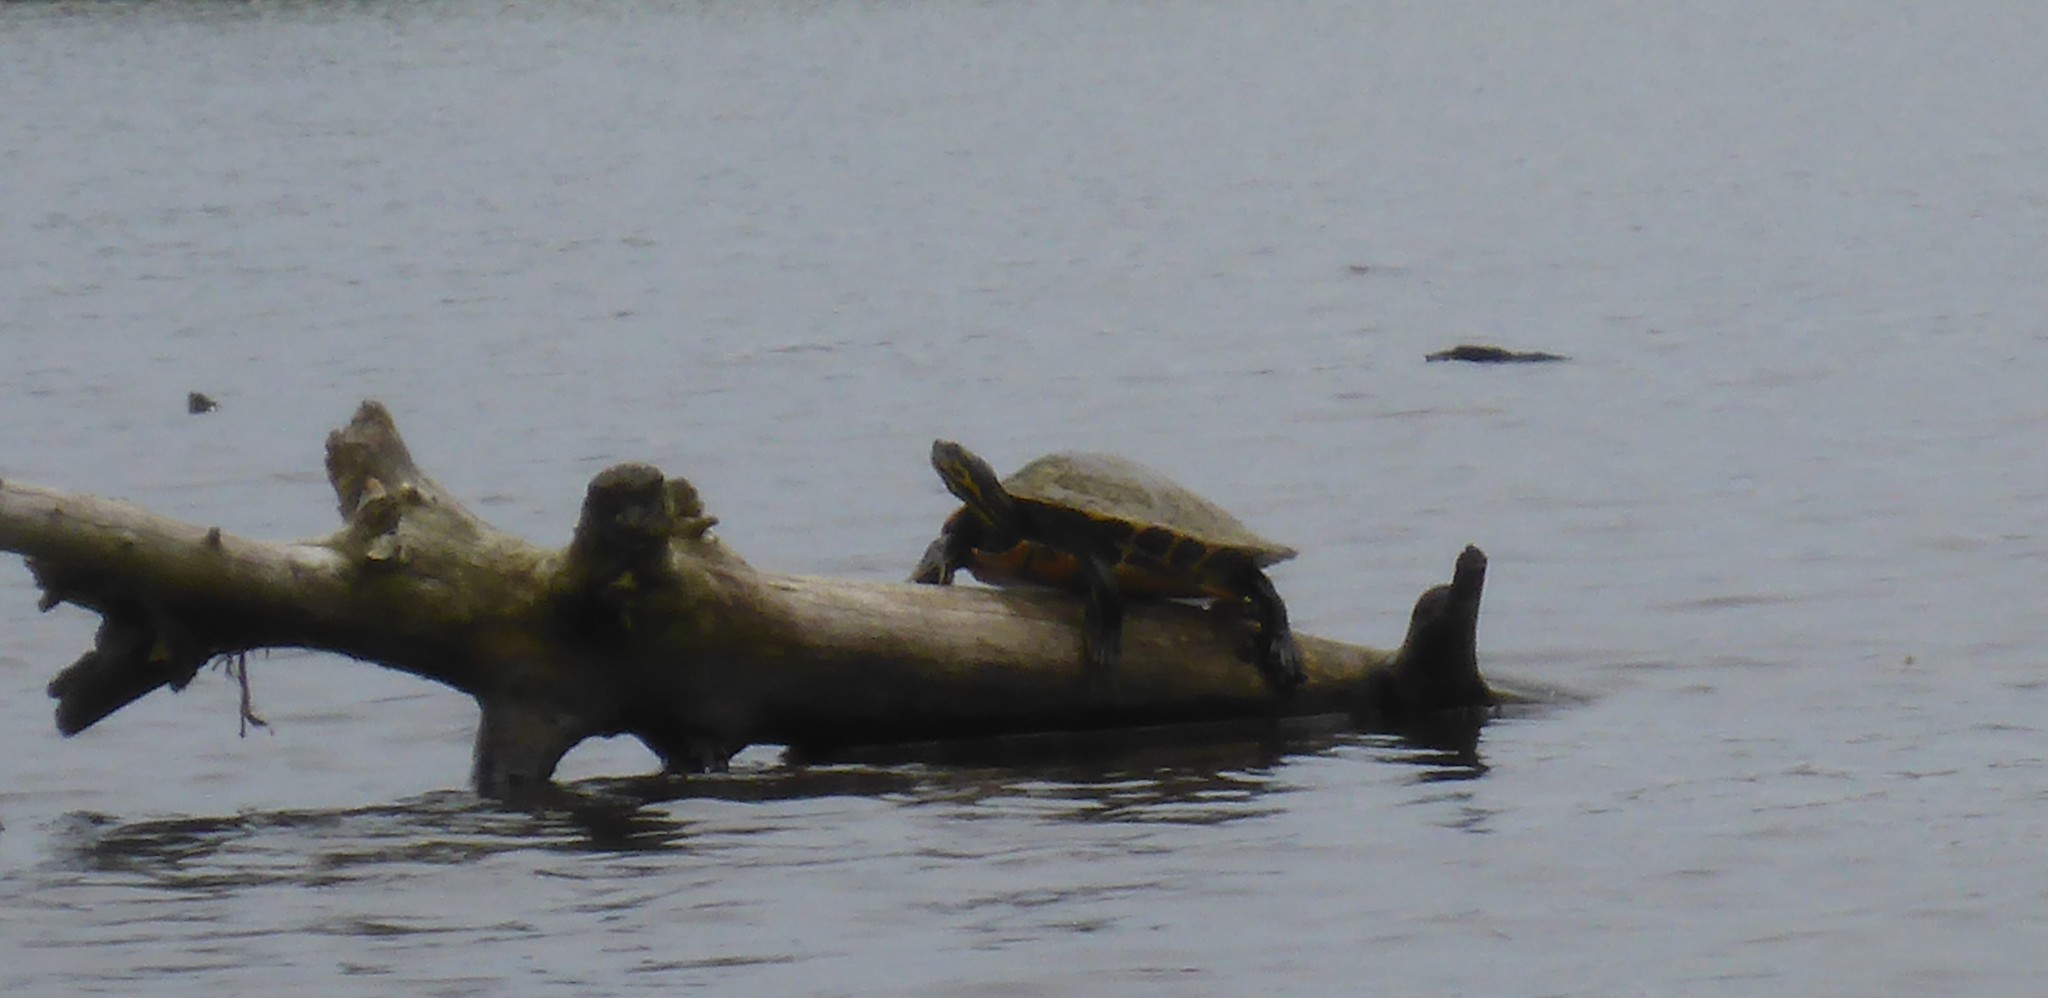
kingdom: Animalia
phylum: Chordata
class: Testudines
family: Emydidae
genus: Pseudemys
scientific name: Pseudemys concinna
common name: Eastern river cooter
